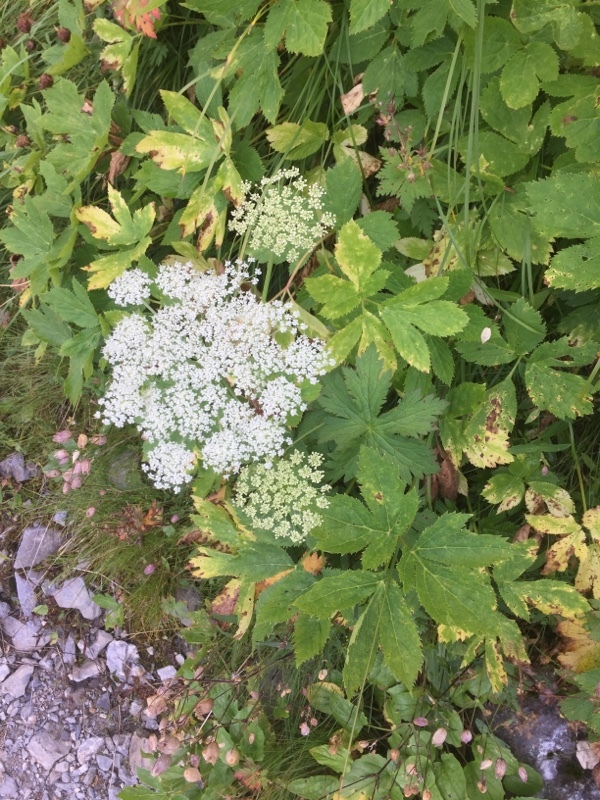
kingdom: Plantae
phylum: Tracheophyta
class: Magnoliopsida
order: Apiales
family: Apiaceae
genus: Imperatoria
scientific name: Imperatoria ostruthium
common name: Masterwort
